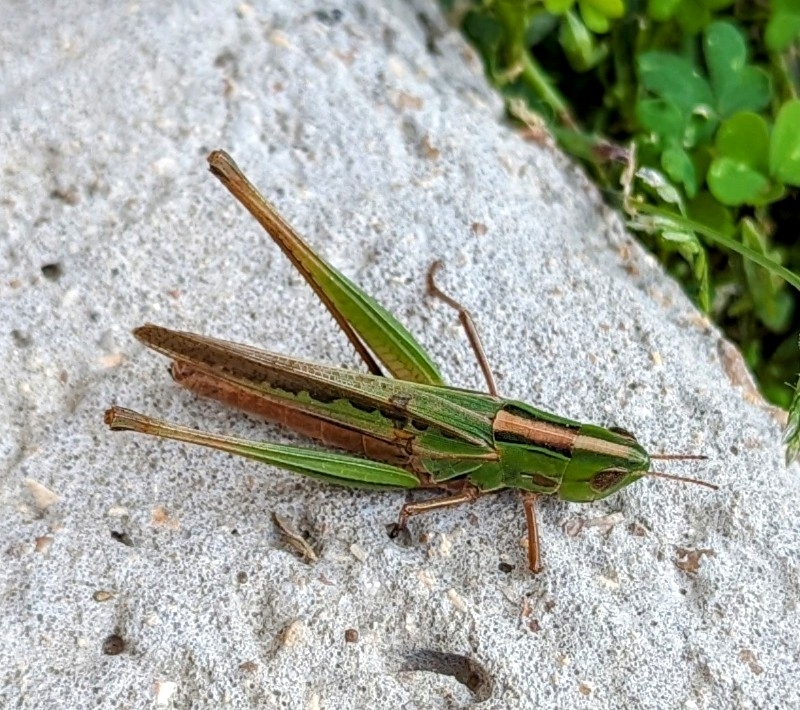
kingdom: Animalia
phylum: Arthropoda
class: Insecta
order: Orthoptera
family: Acrididae
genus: Syrbula
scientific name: Syrbula admirabilis
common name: Handsome grasshopper
